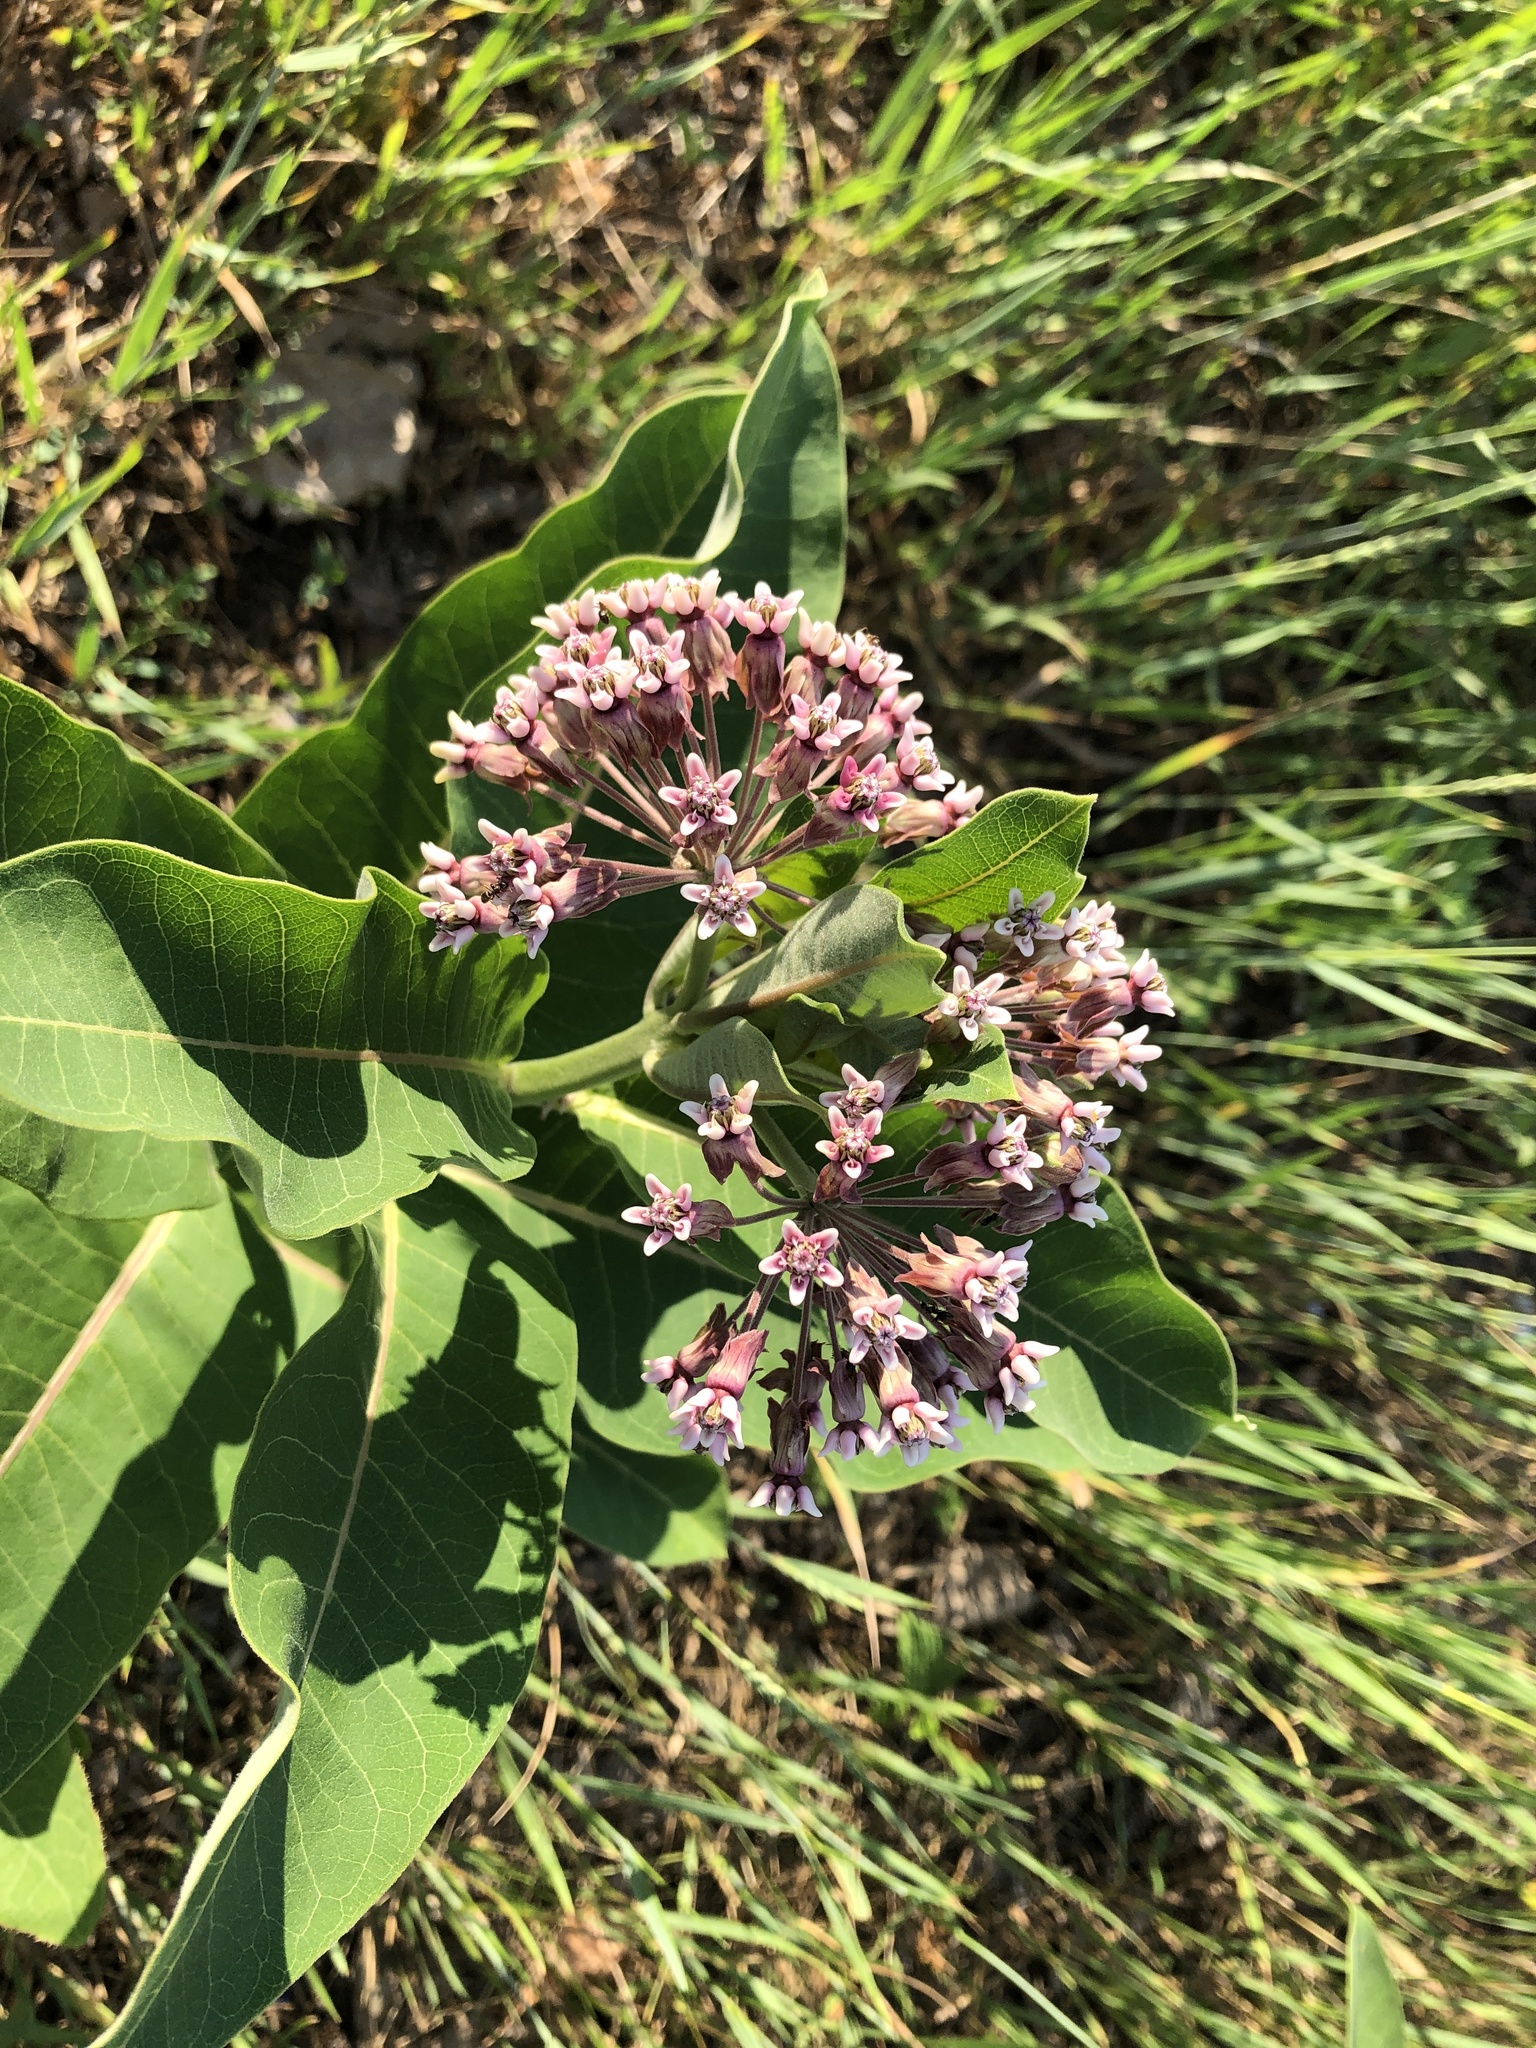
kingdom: Plantae
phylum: Tracheophyta
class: Magnoliopsida
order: Gentianales
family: Apocynaceae
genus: Asclepias
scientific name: Asclepias syriaca
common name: Common milkweed
